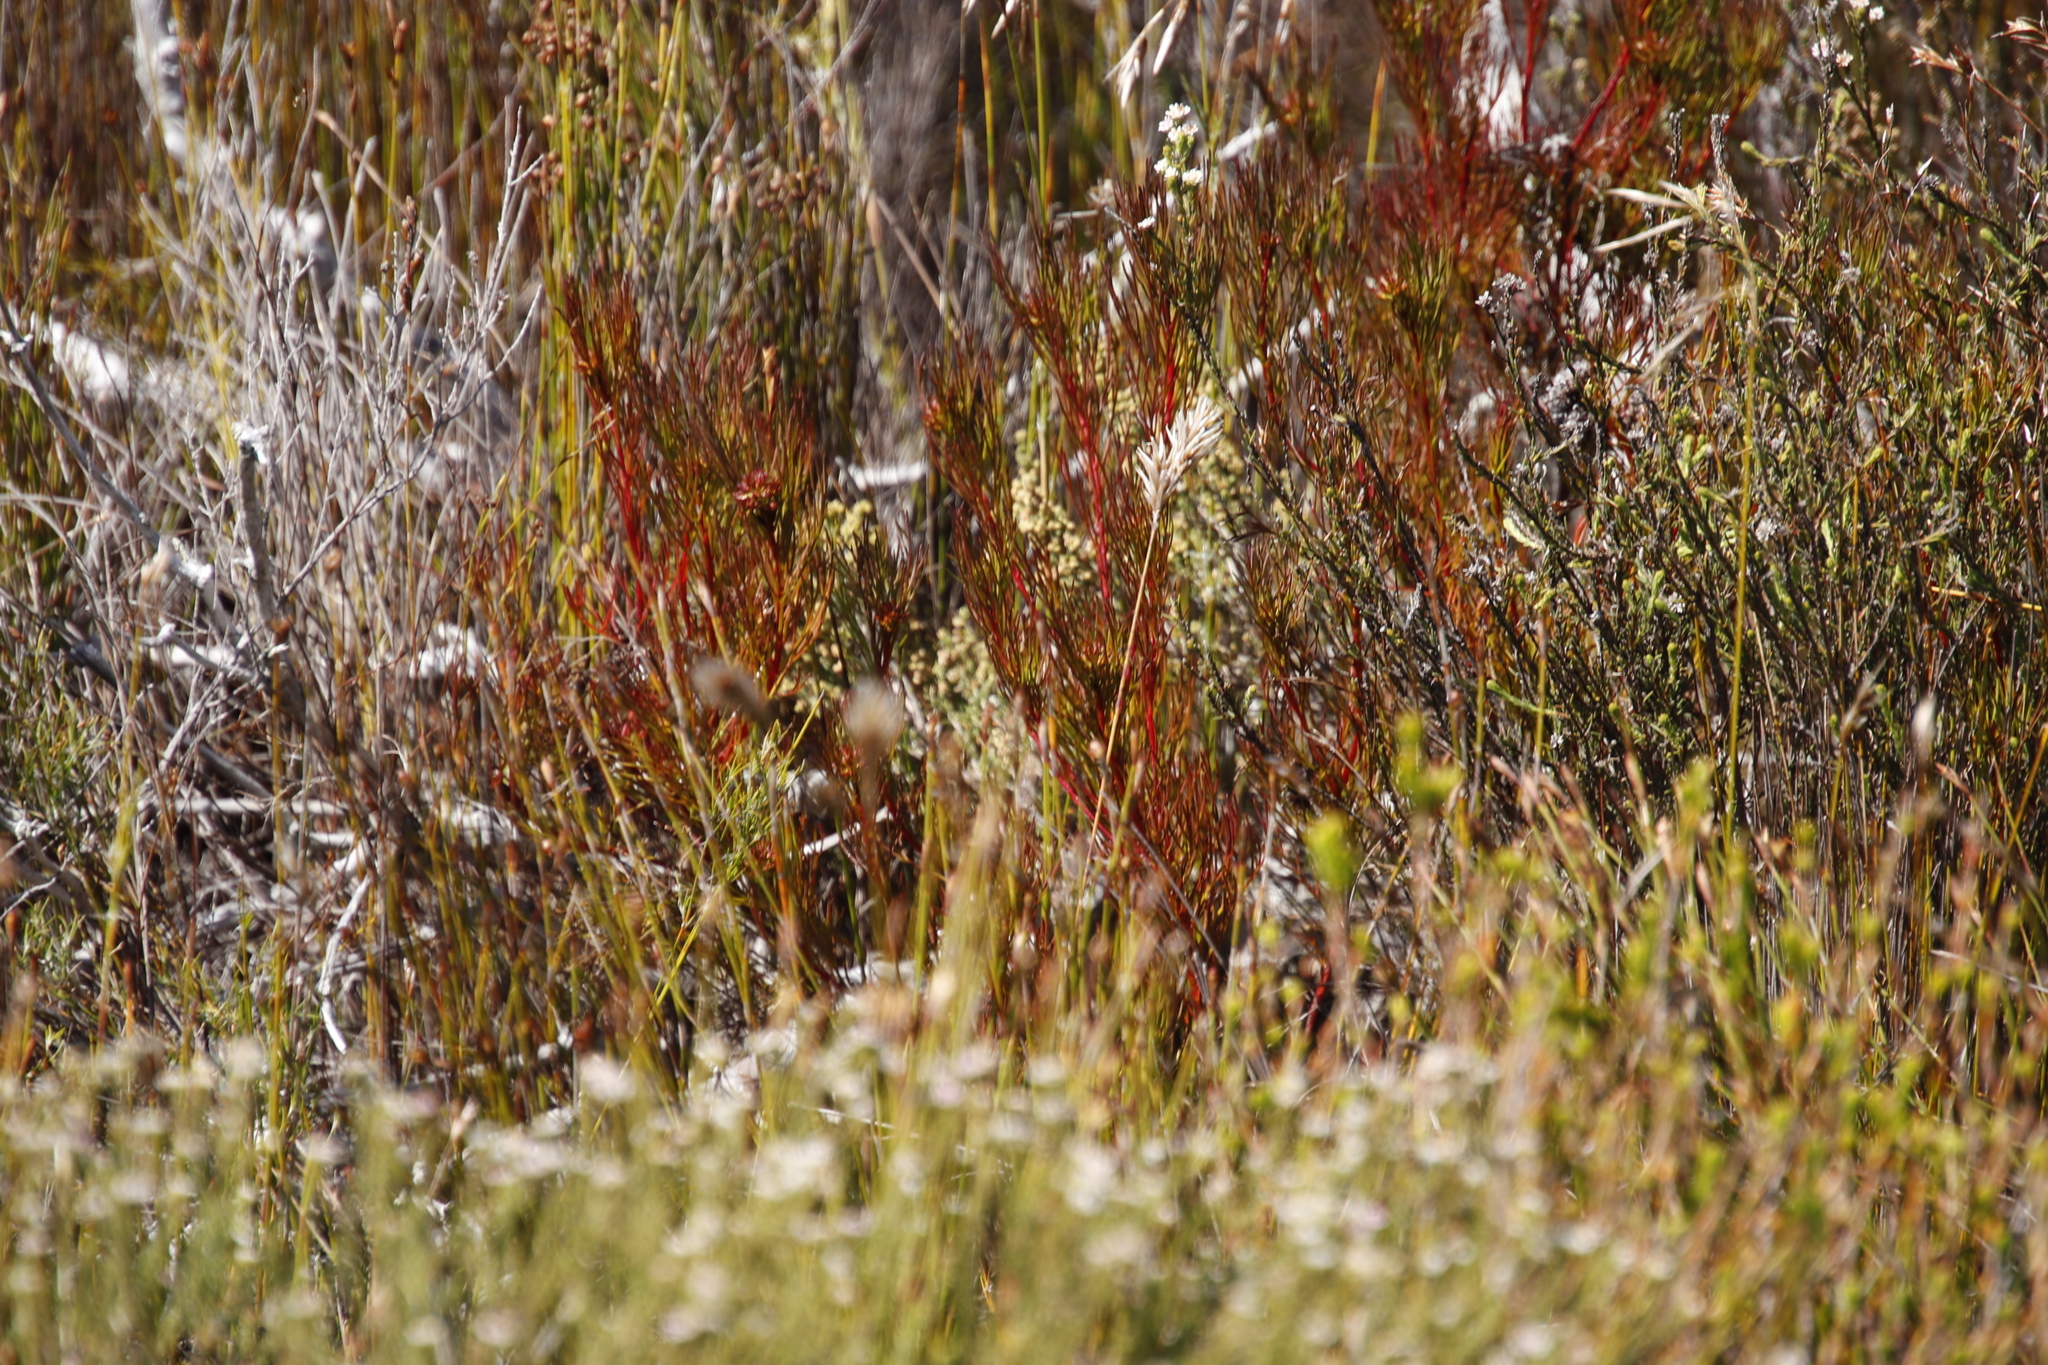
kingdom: Plantae
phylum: Tracheophyta
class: Magnoliopsida
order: Proteales
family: Proteaceae
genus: Serruria
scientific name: Serruria bolusii
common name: Agulhas spiderhead
